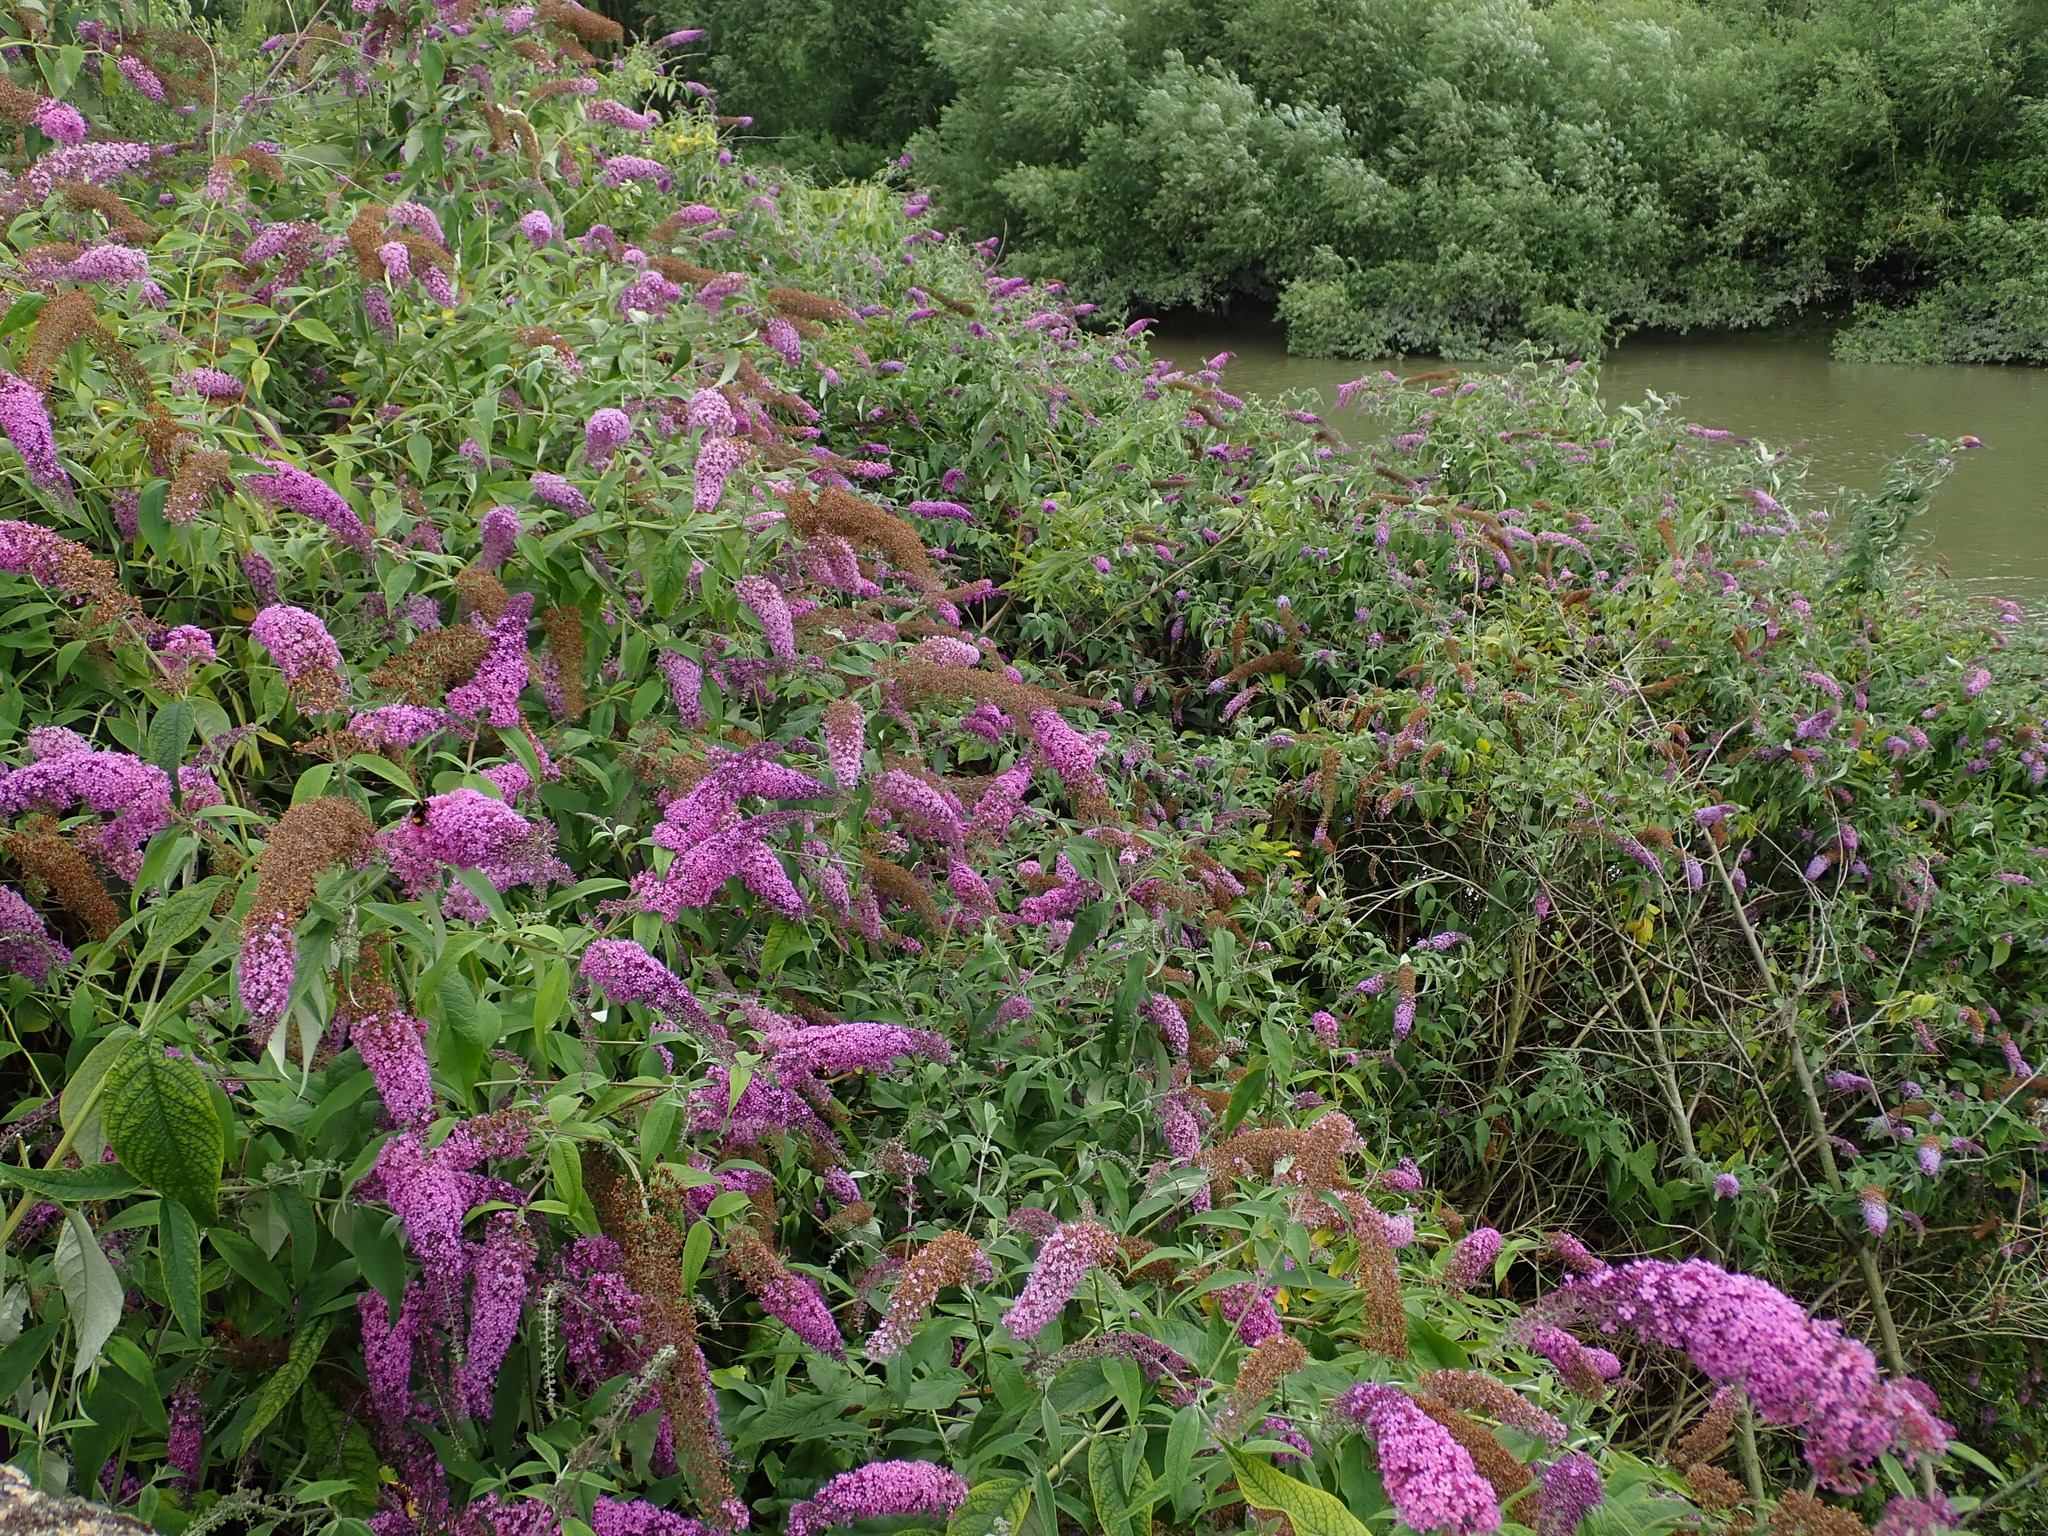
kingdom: Plantae
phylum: Tracheophyta
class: Magnoliopsida
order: Lamiales
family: Scrophulariaceae
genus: Buddleja
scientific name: Buddleja davidii
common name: Butterfly-bush
